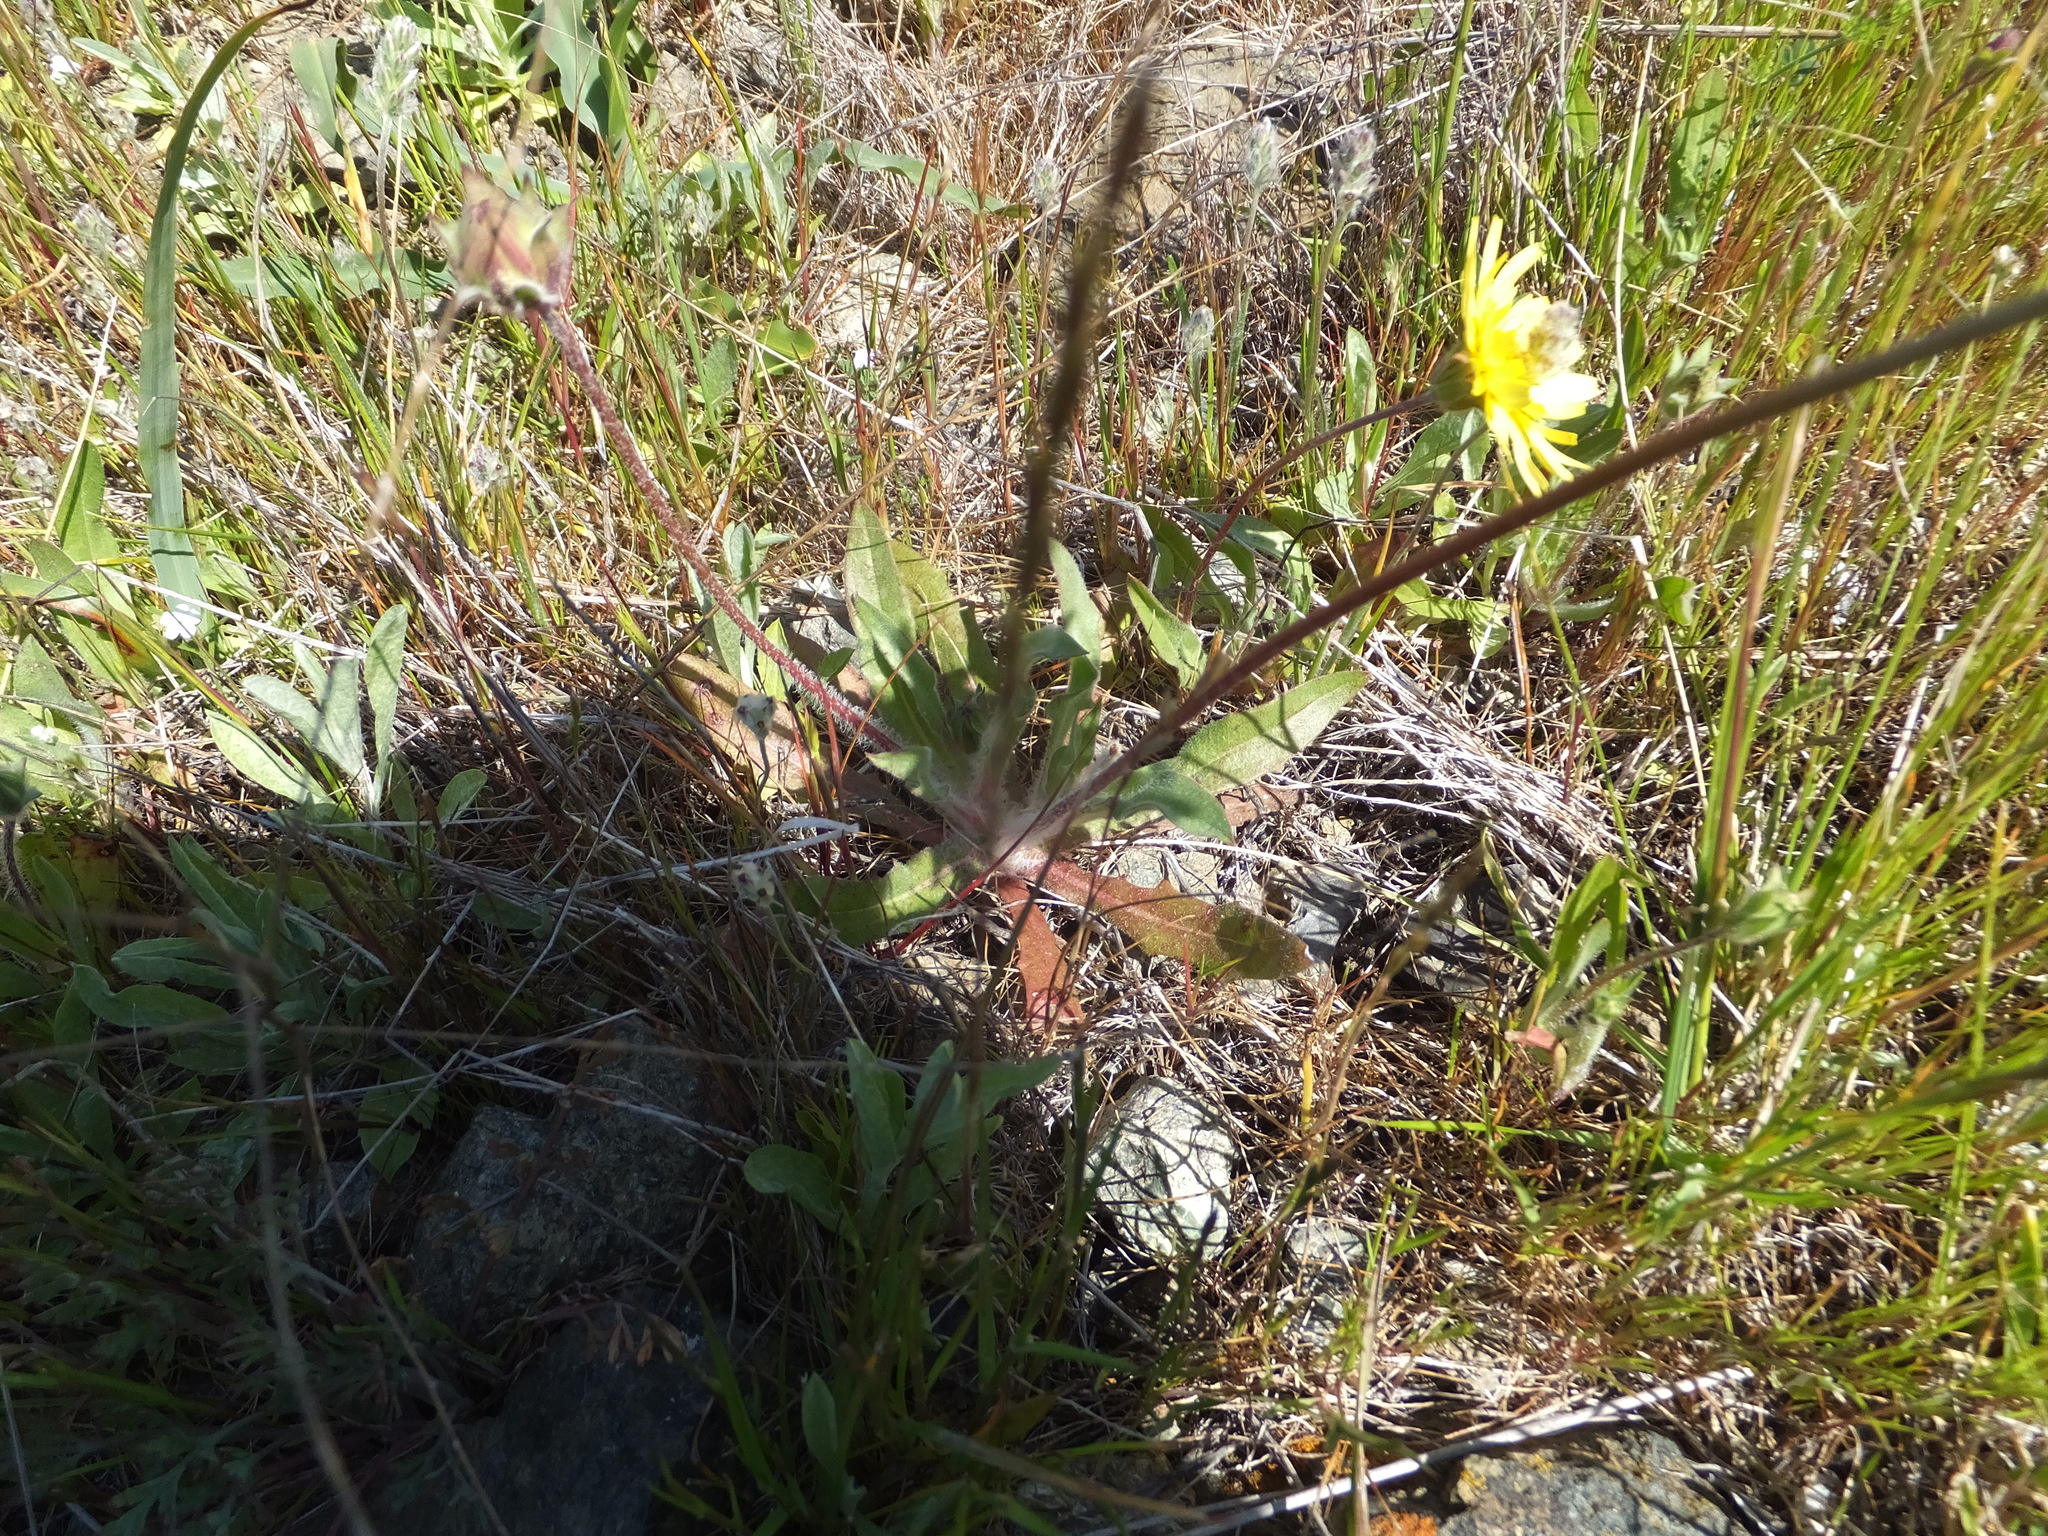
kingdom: Plantae
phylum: Tracheophyta
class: Magnoliopsida
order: Asterales
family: Asteraceae
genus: Agoseris
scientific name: Agoseris heterophylla
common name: Annual agoseris
